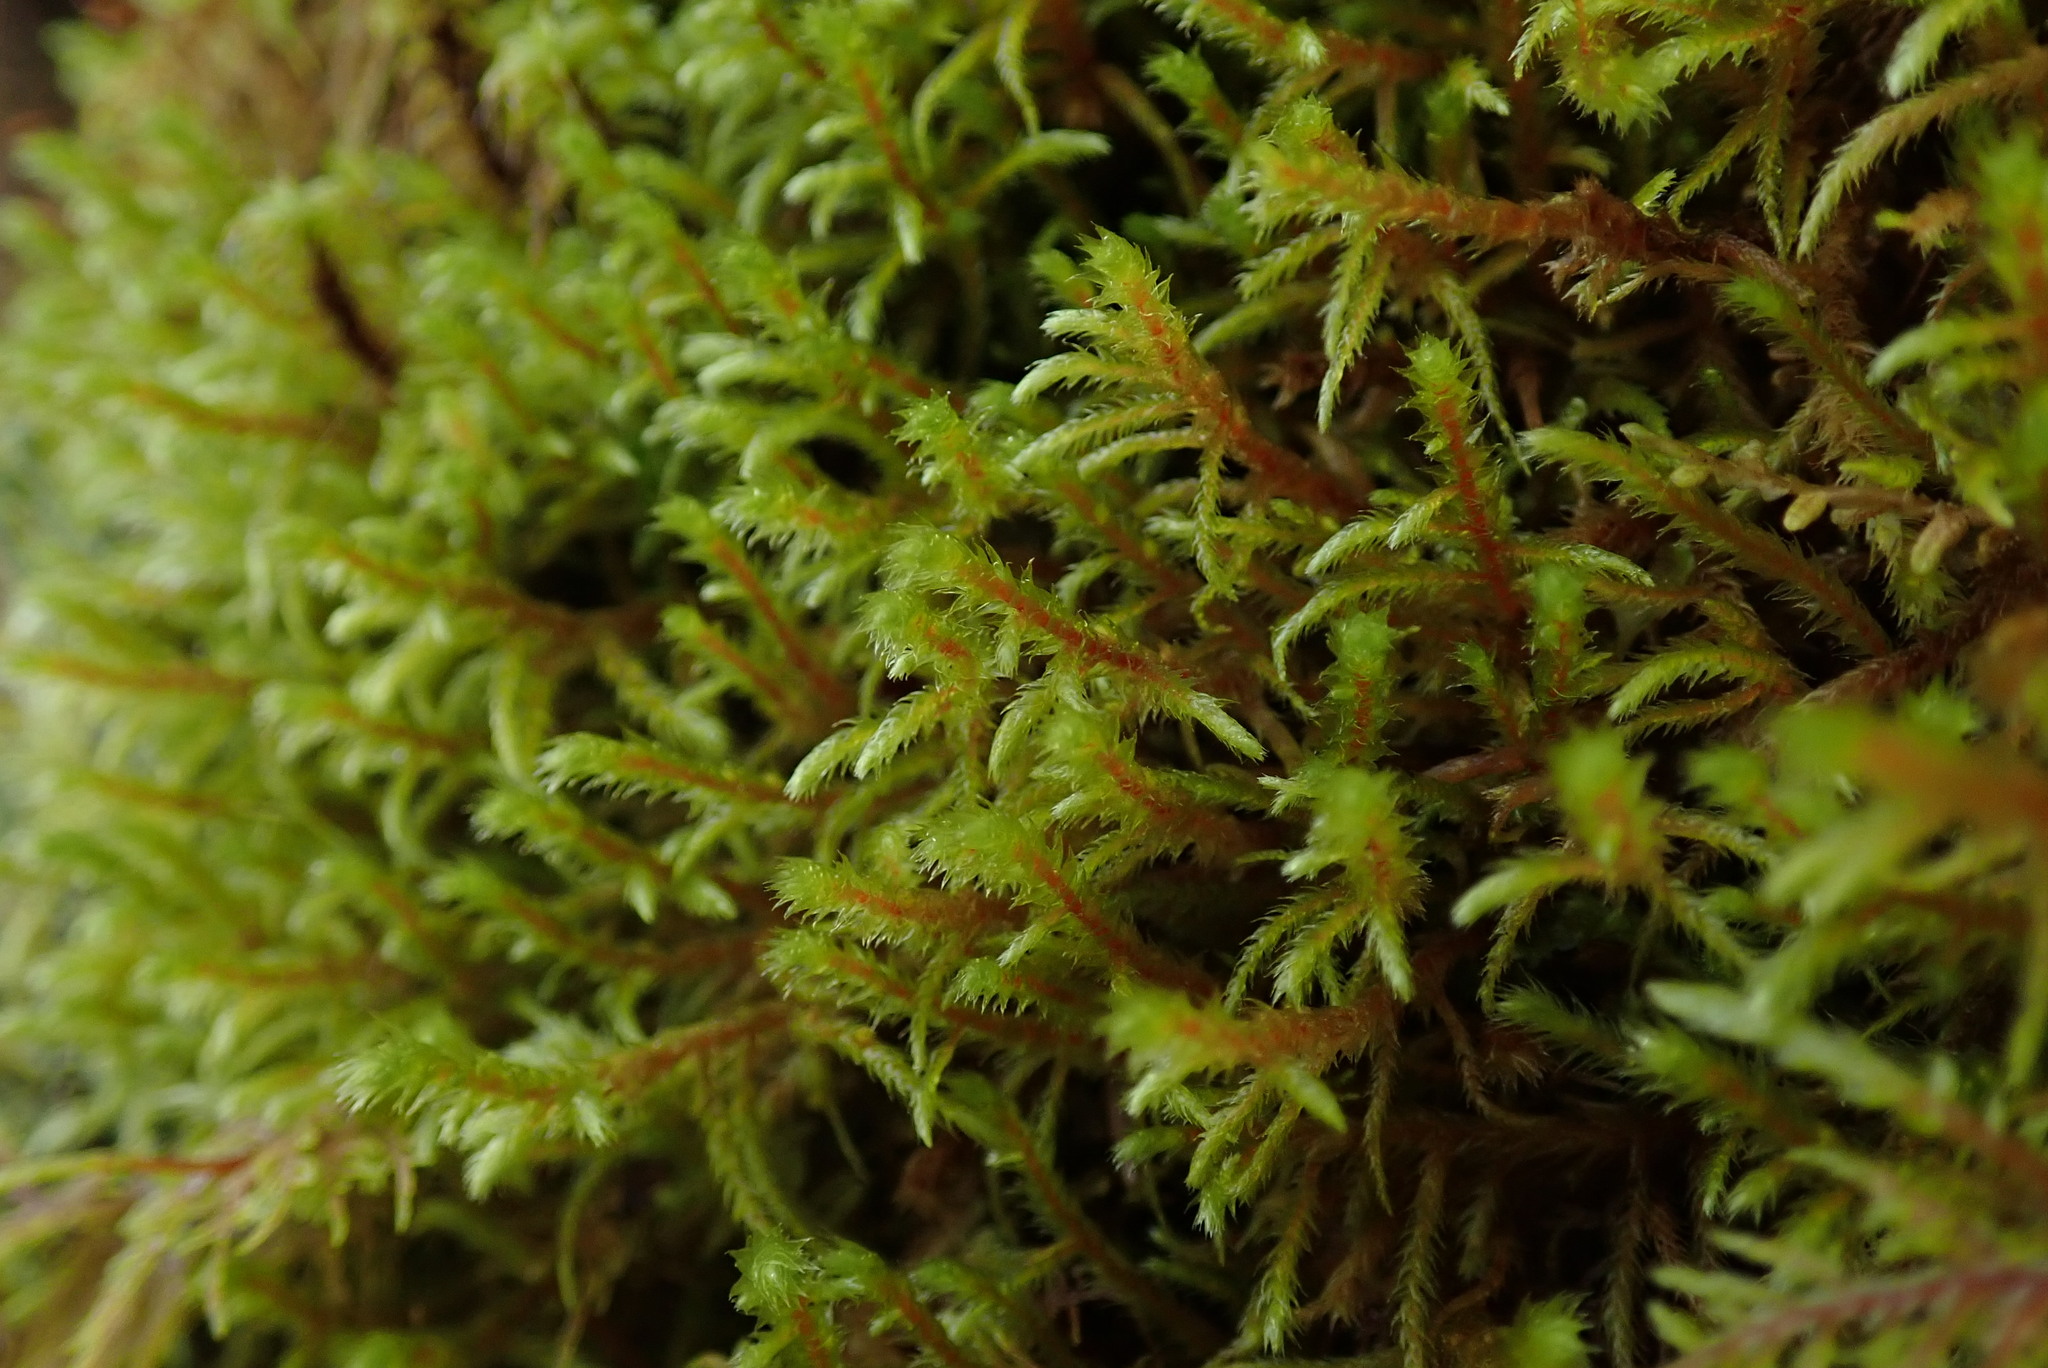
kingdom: Plantae
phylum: Bryophyta
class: Bryopsida
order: Hypnales
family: Antitrichiaceae
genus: Antitrichia
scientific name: Antitrichia curtipendula
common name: Pendulous wing-moss
